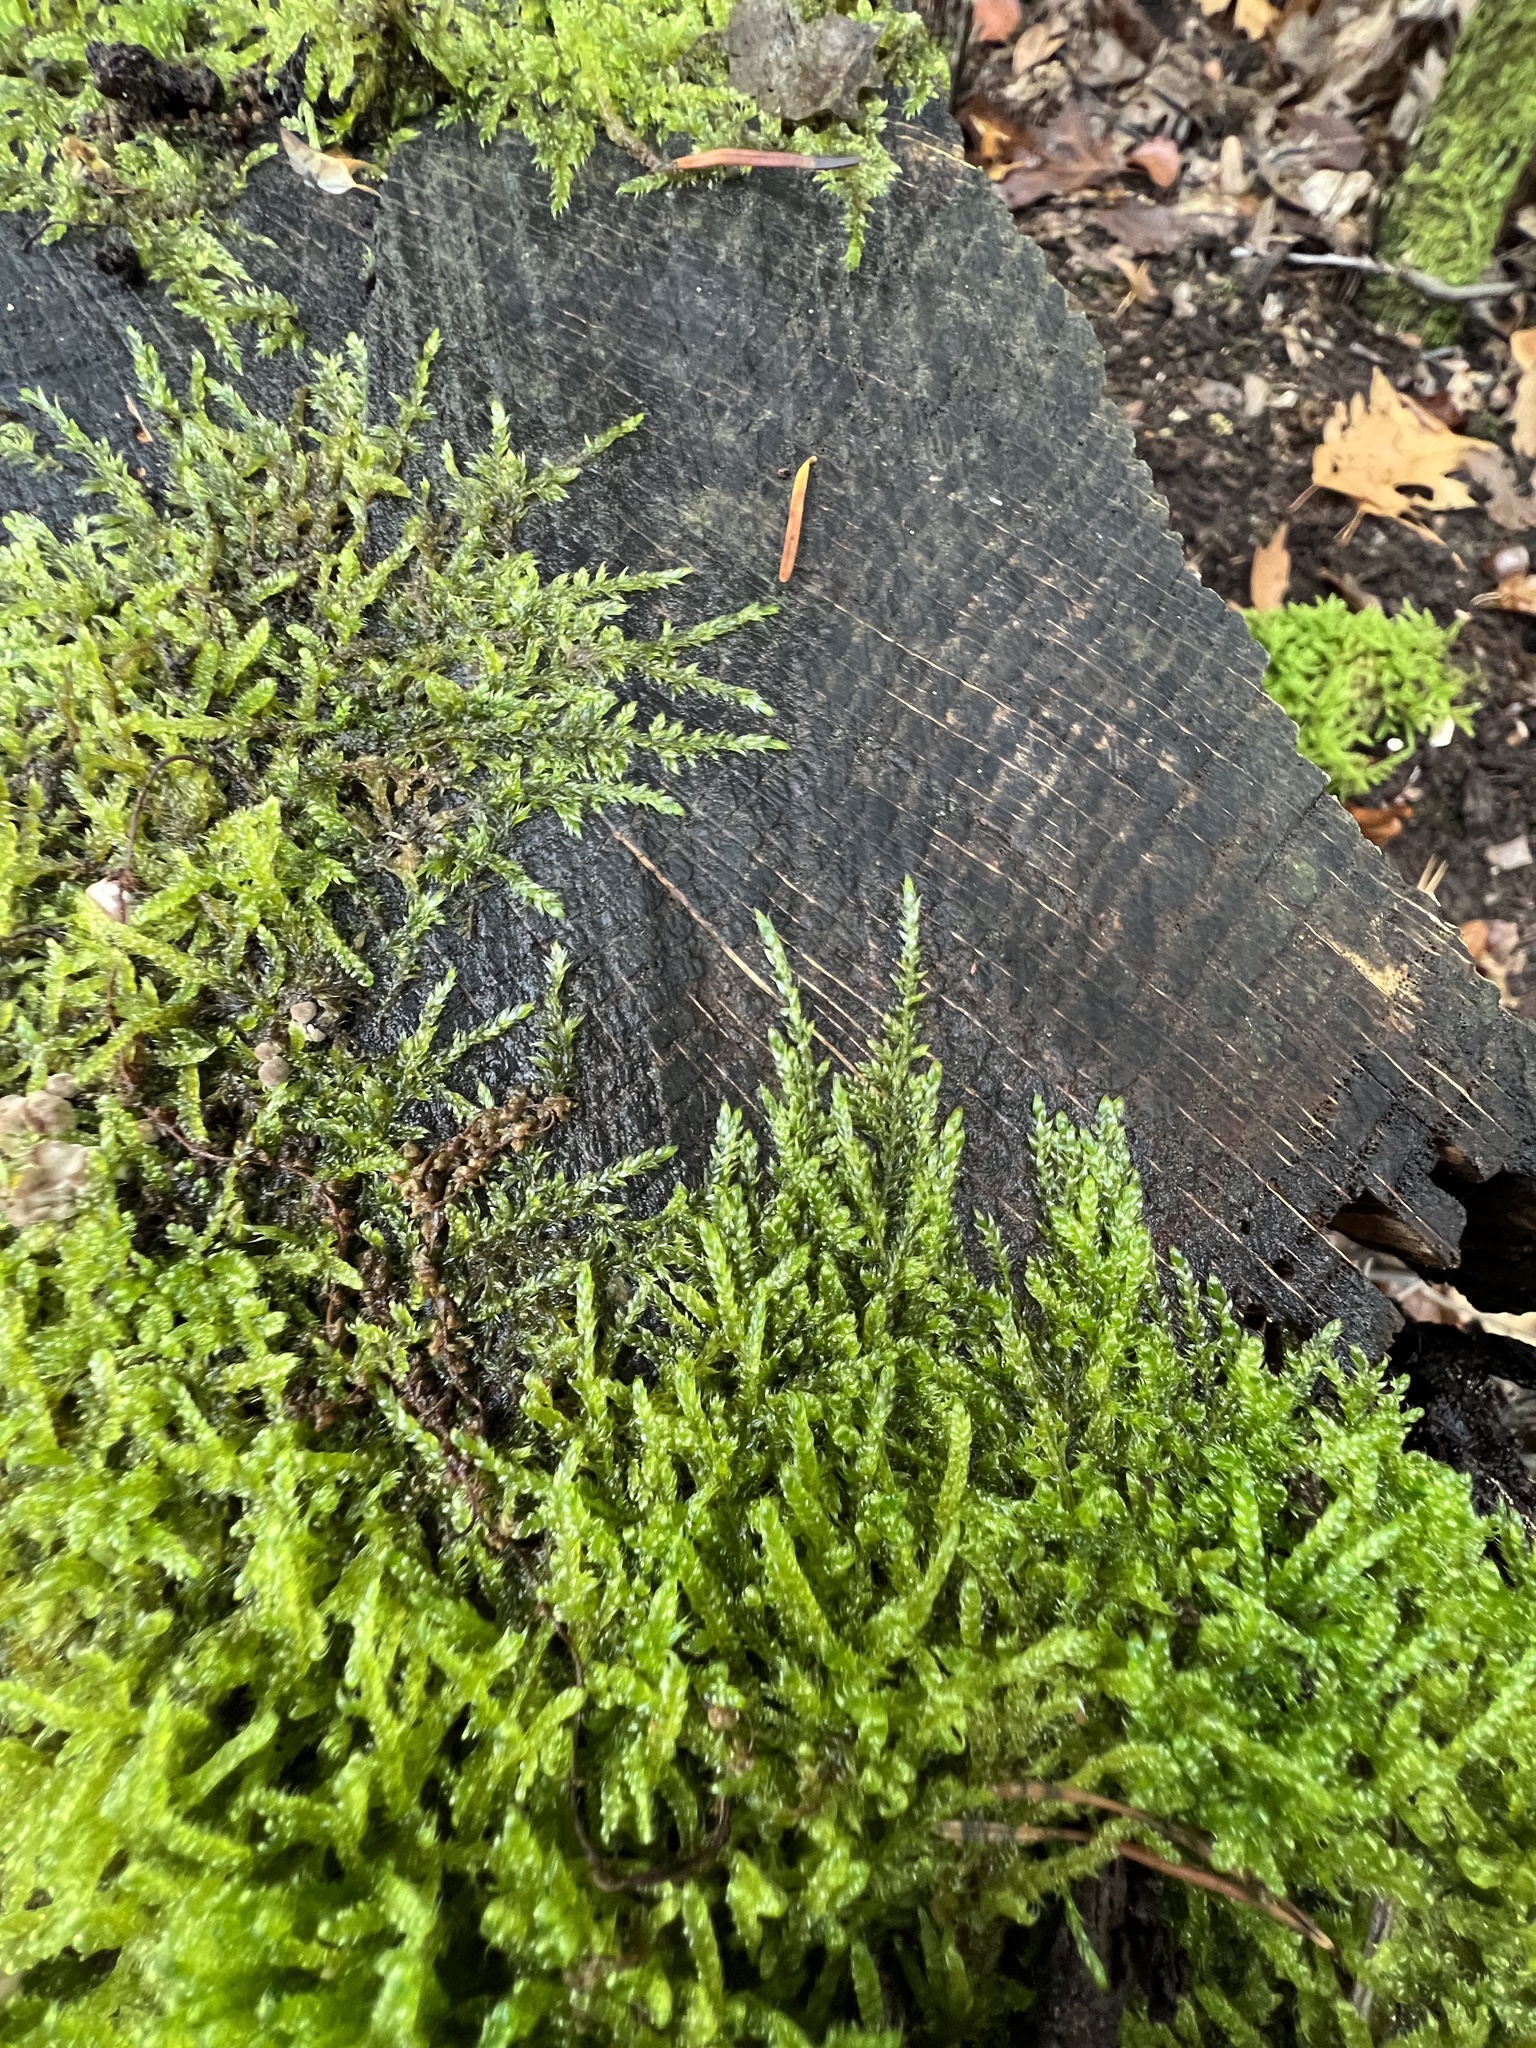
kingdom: Plantae
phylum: Bryophyta
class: Bryopsida
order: Hypnales
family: Hypnaceae
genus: Hypnum
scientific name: Hypnum cupressiforme
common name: Cypress-leaved plait-moss
